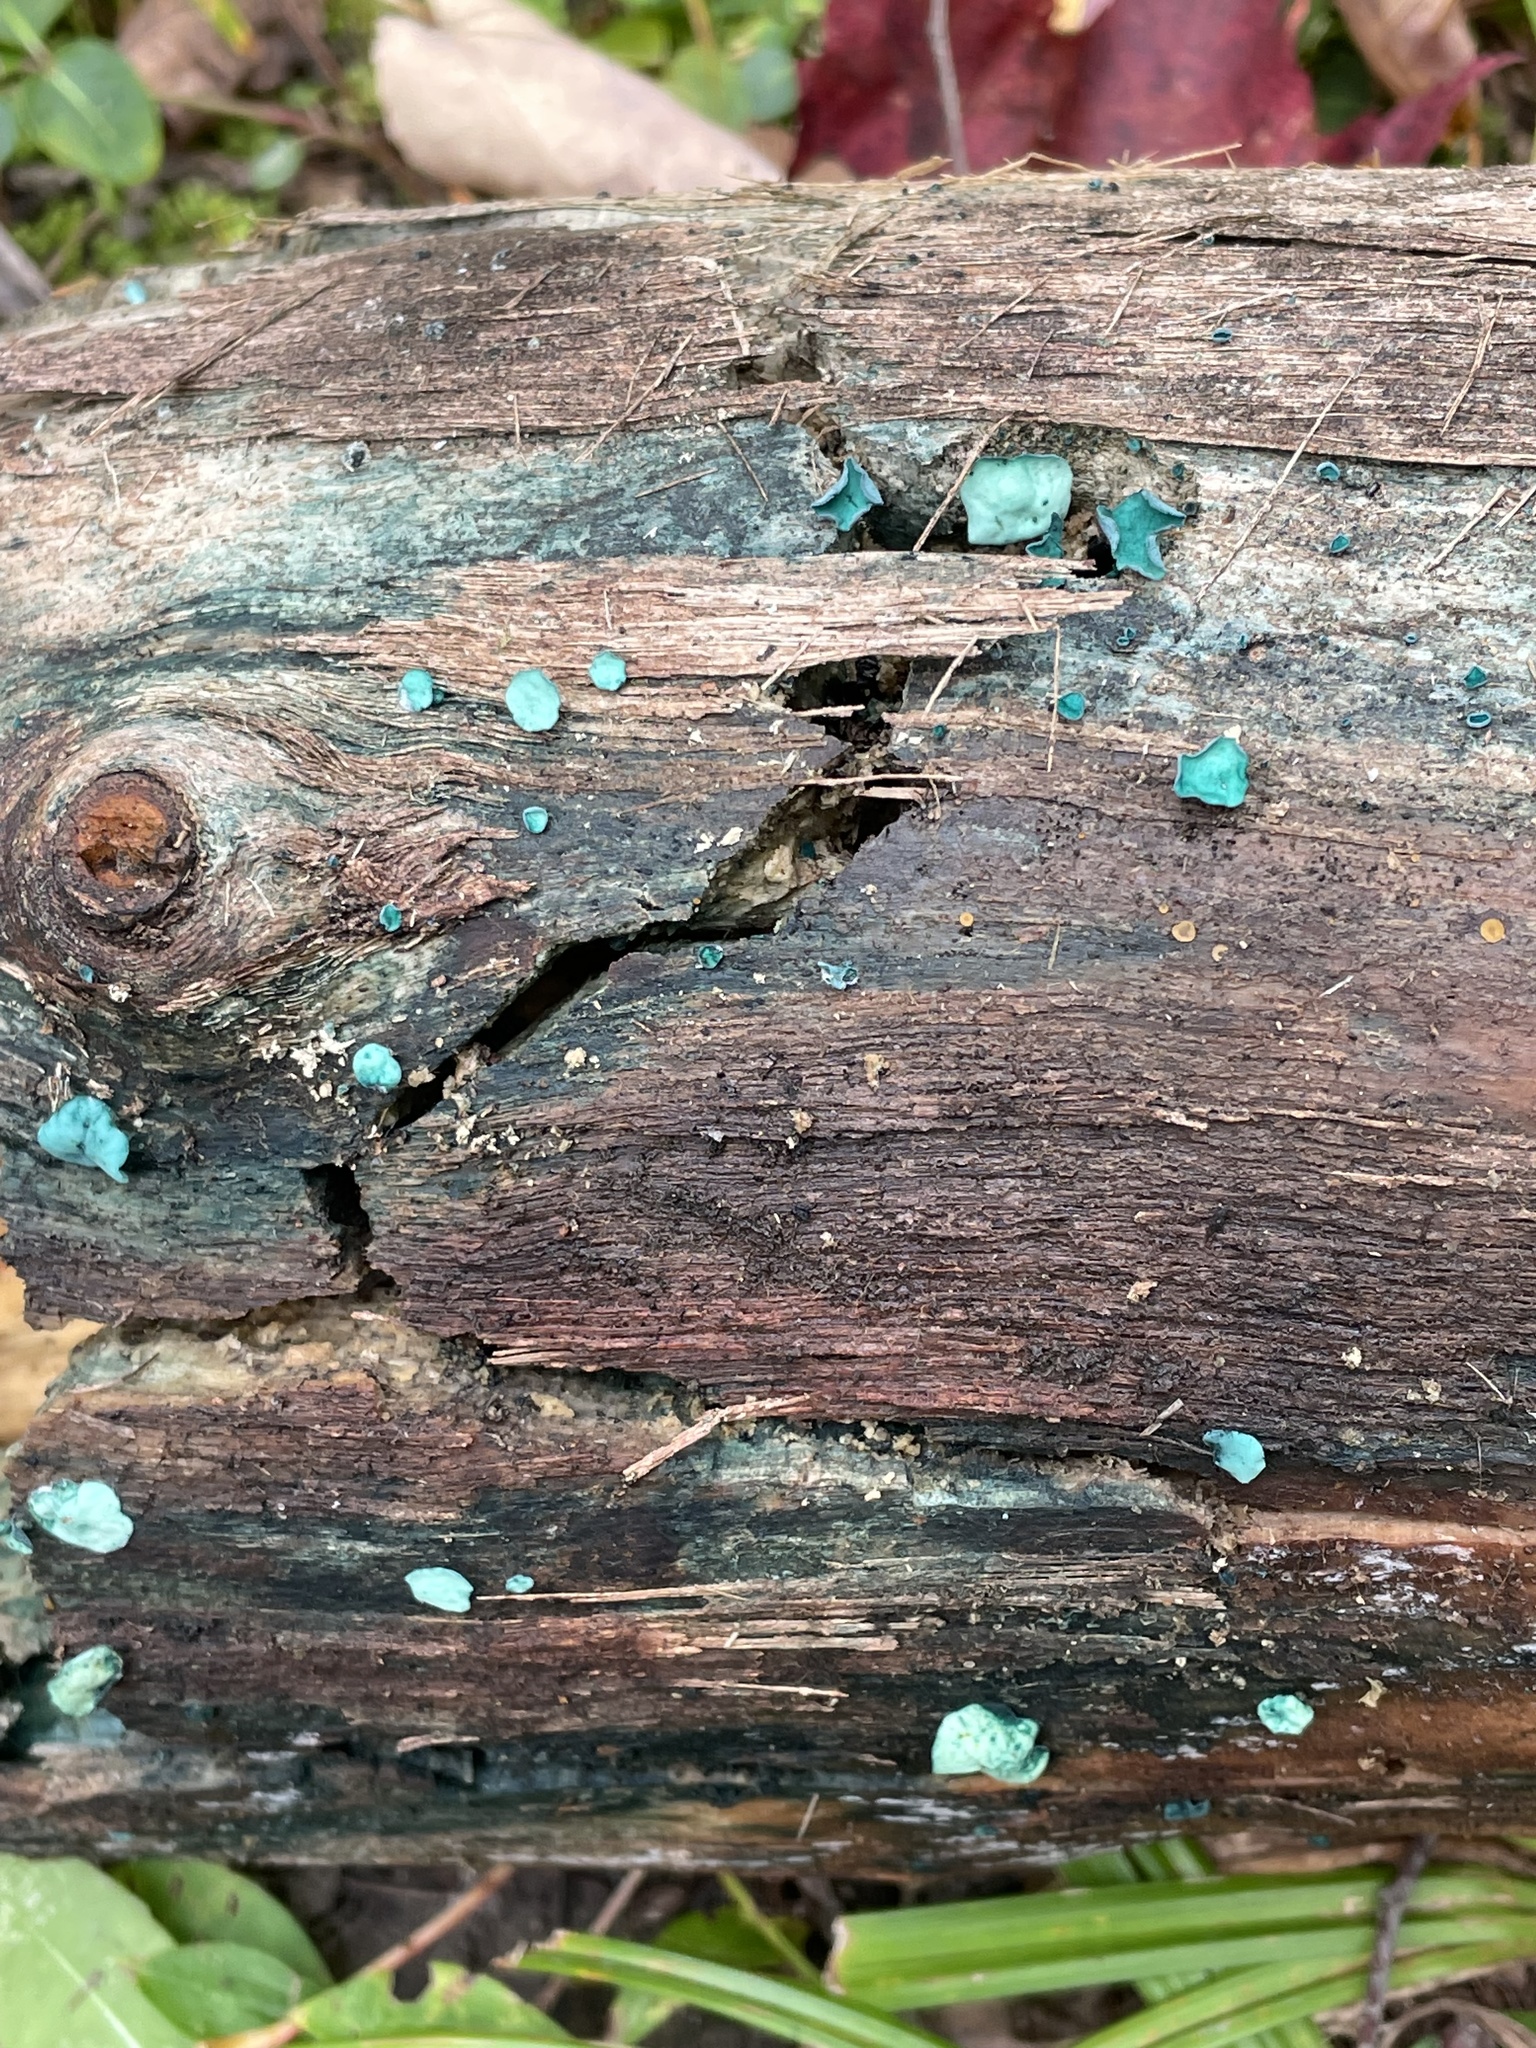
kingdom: Fungi
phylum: Ascomycota
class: Leotiomycetes
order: Helotiales
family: Chlorociboriaceae
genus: Chlorociboria
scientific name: Chlorociboria aeruginascens
